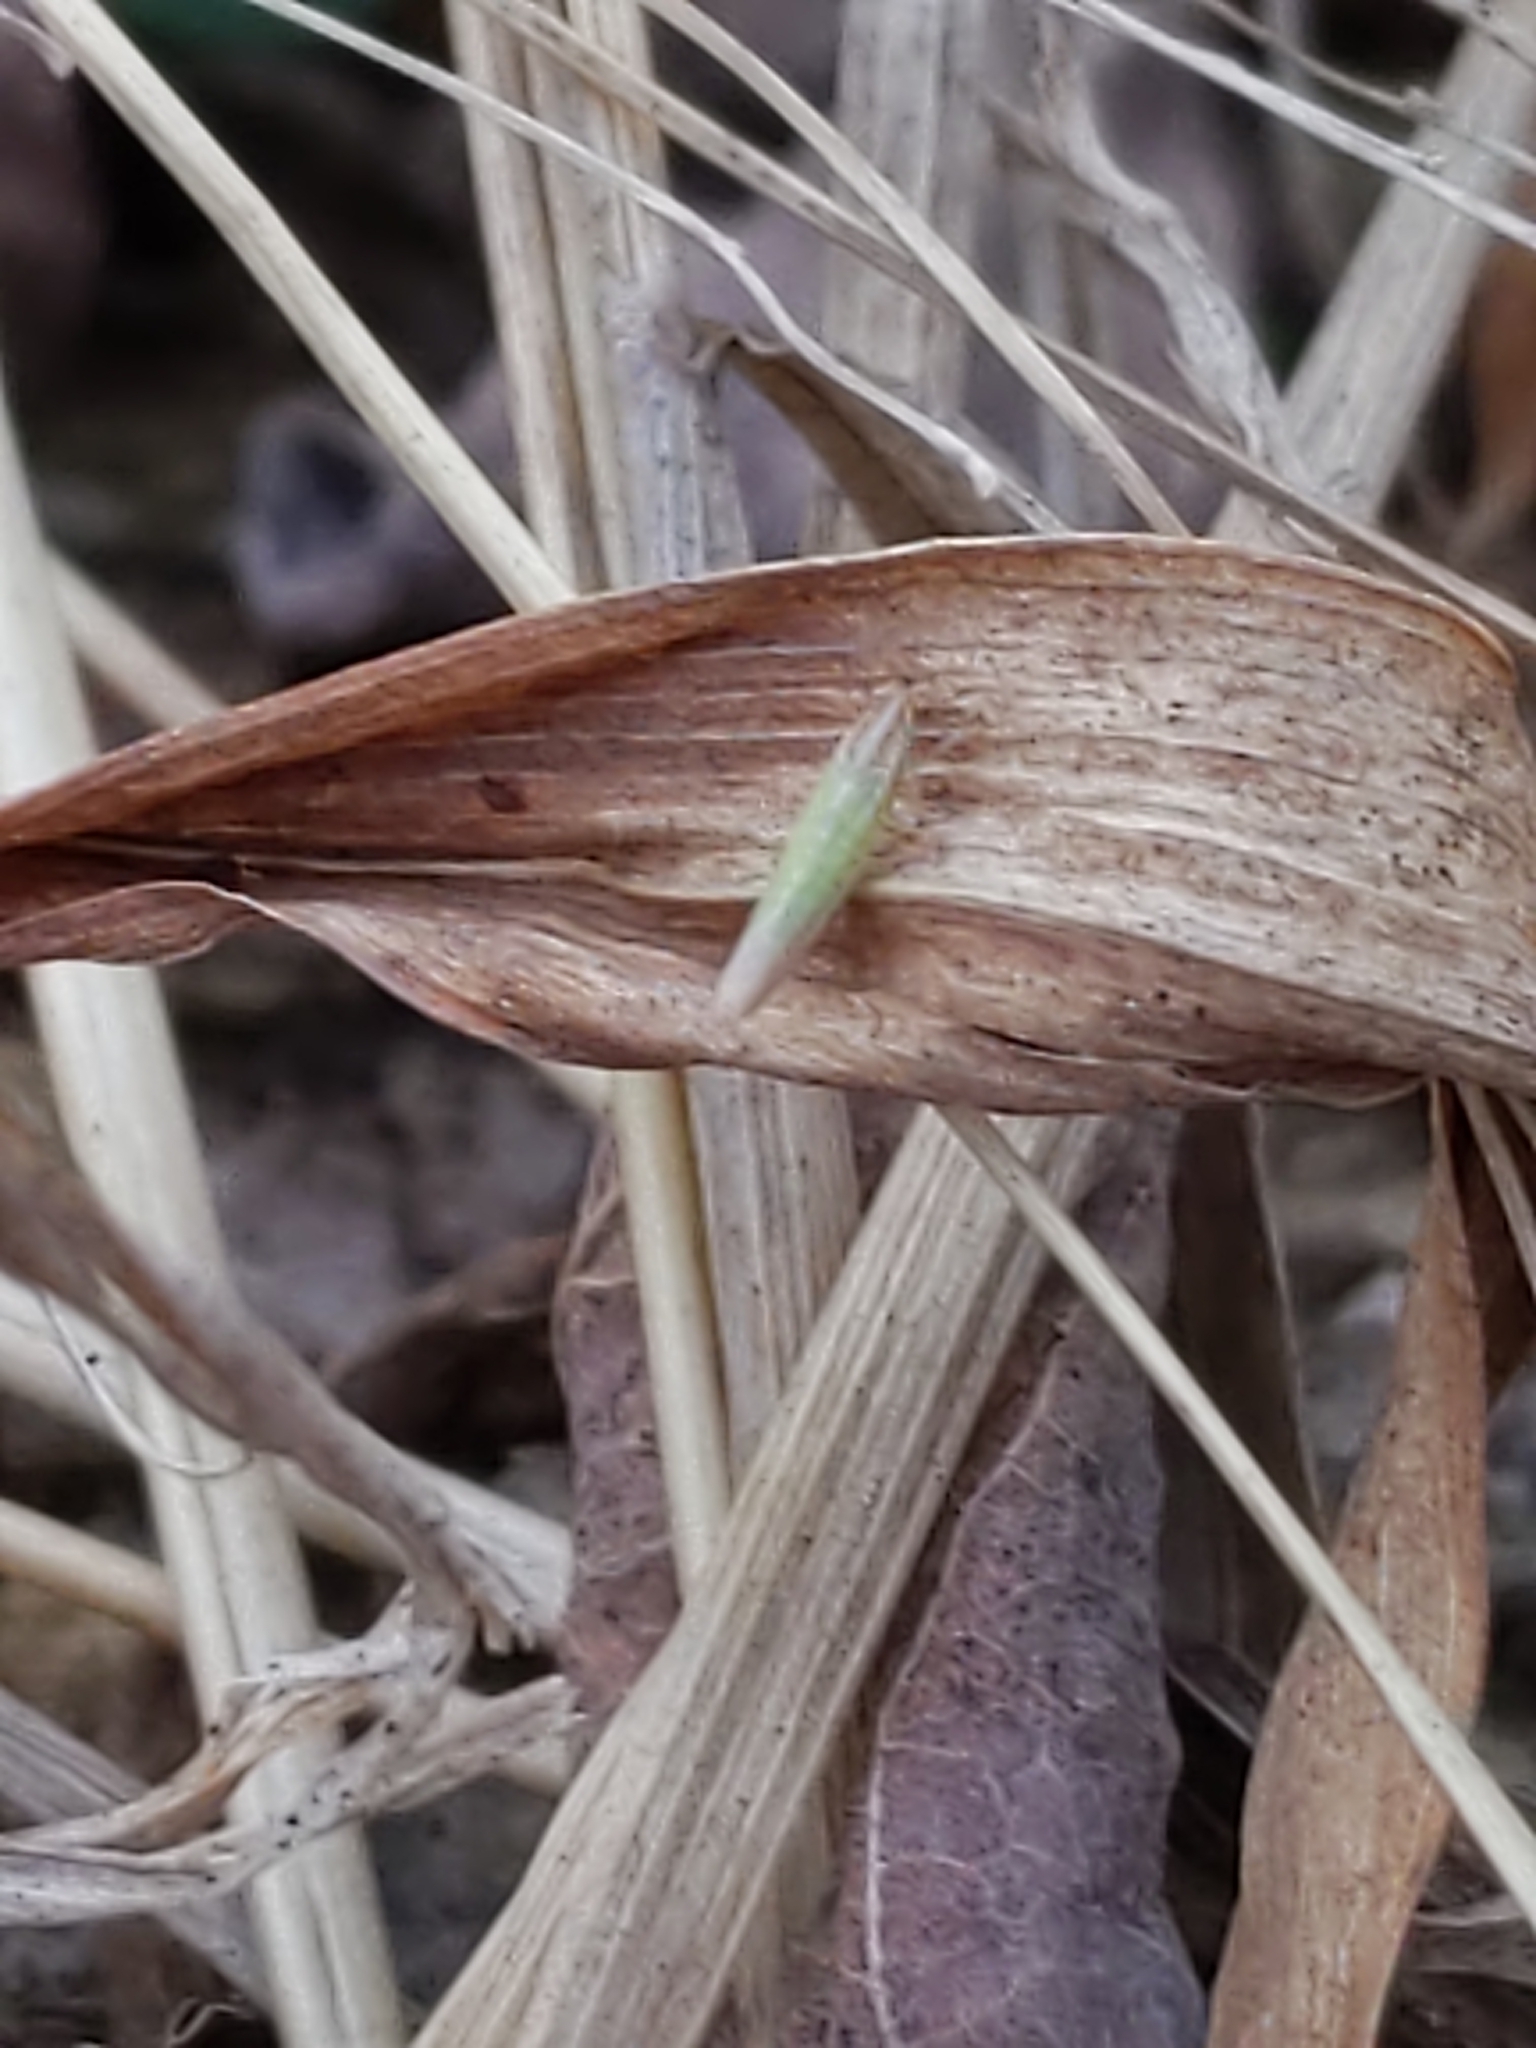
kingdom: Animalia
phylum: Arthropoda
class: Insecta
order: Hemiptera
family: Cicadellidae
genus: Dikraneura
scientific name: Dikraneura angustata
